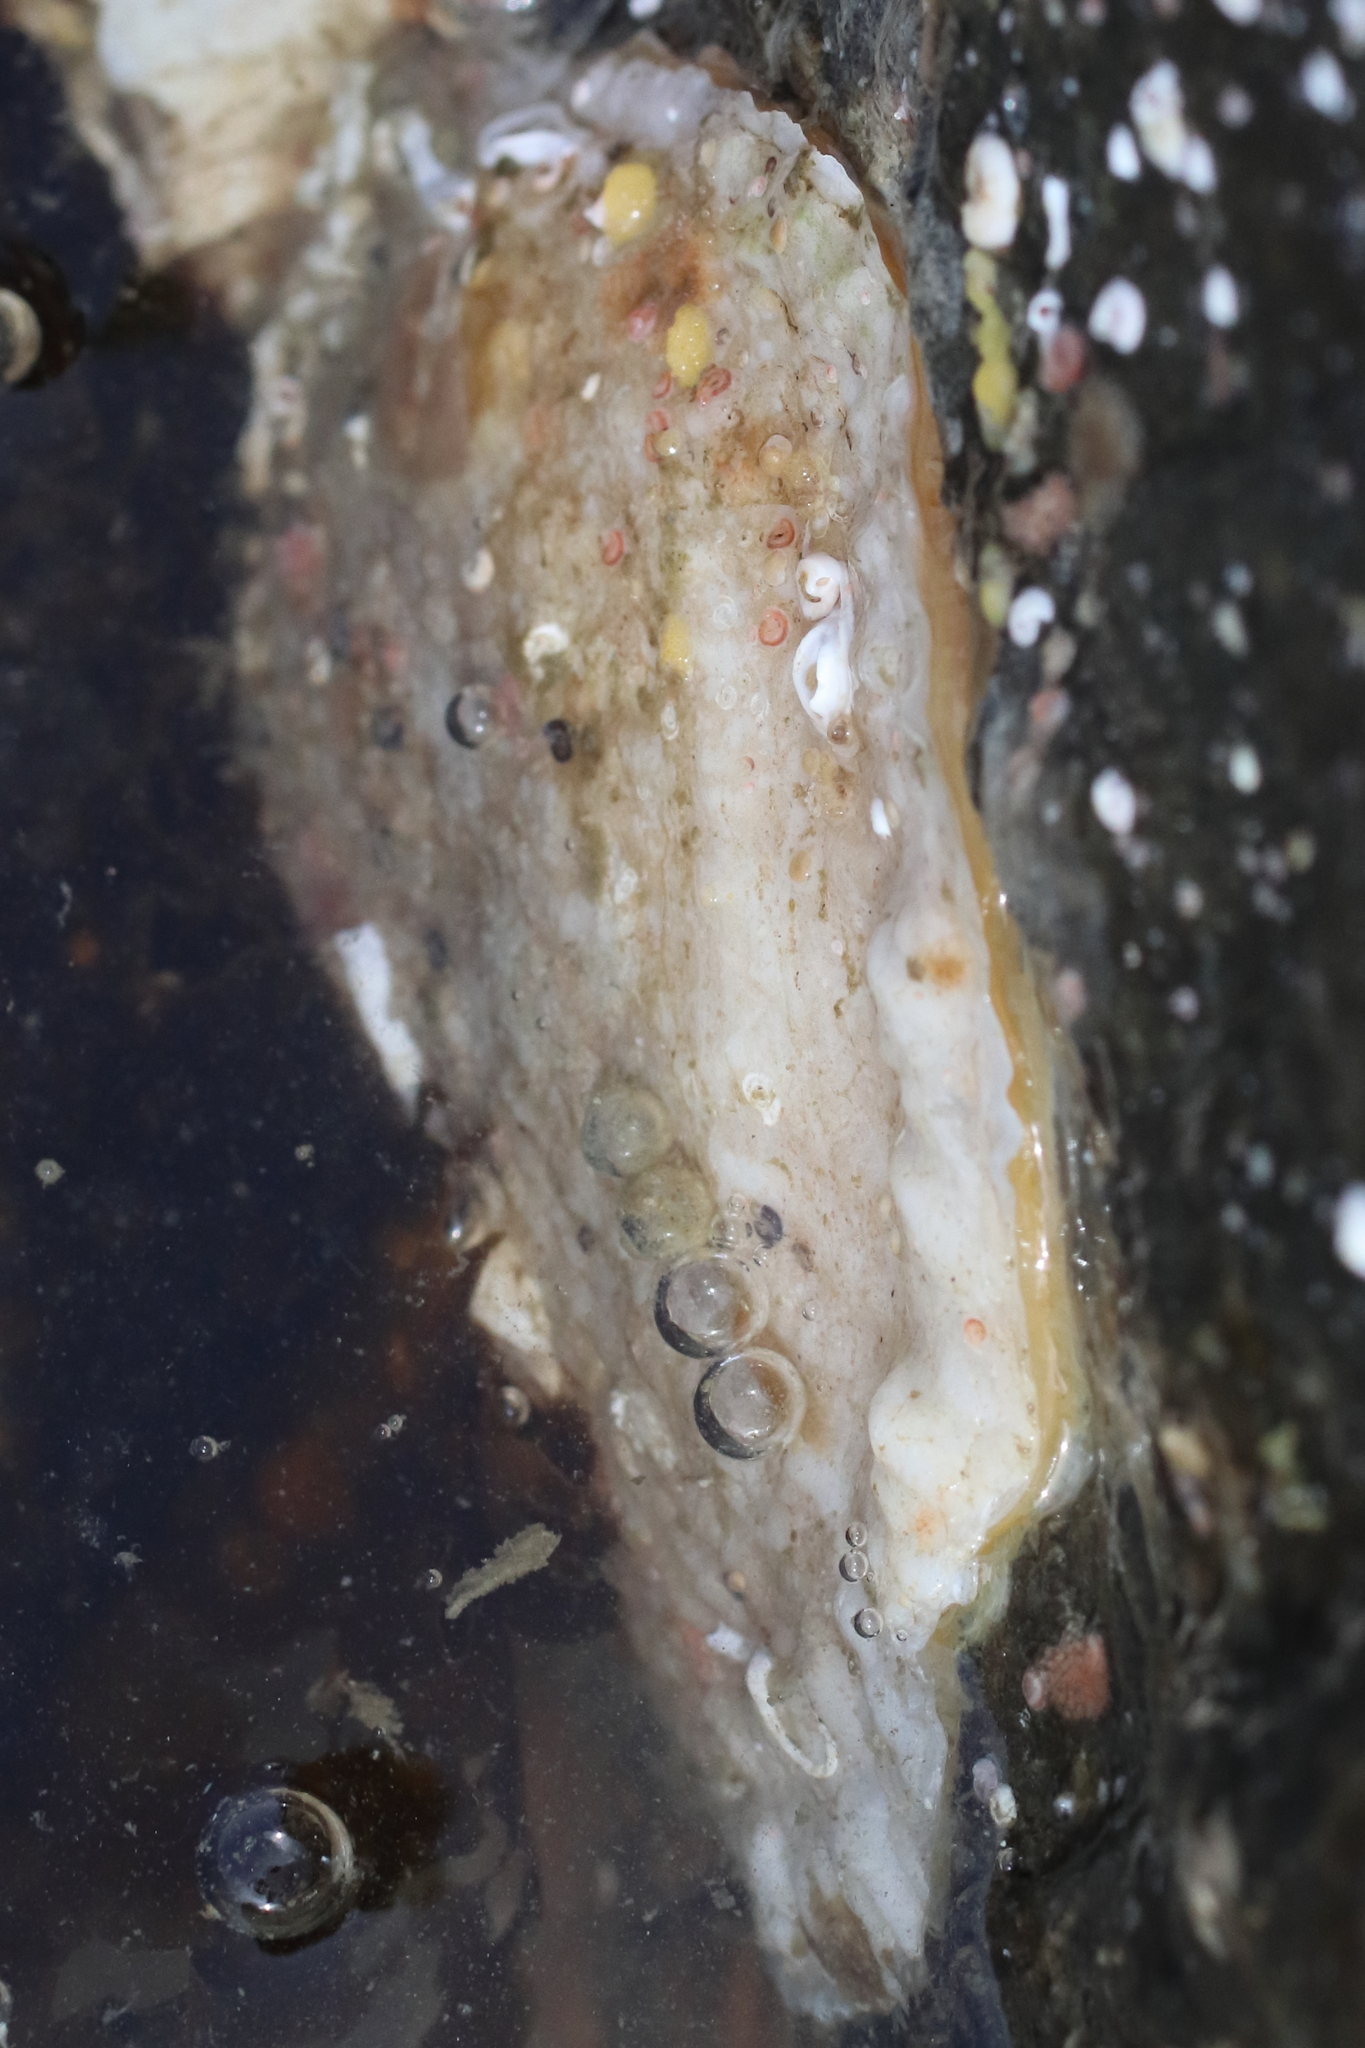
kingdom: Animalia
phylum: Mollusca
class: Bivalvia
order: Pectinida
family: Anomiidae
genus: Pododesmus
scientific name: Pododesmus macrochisma
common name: Alaska jingle
